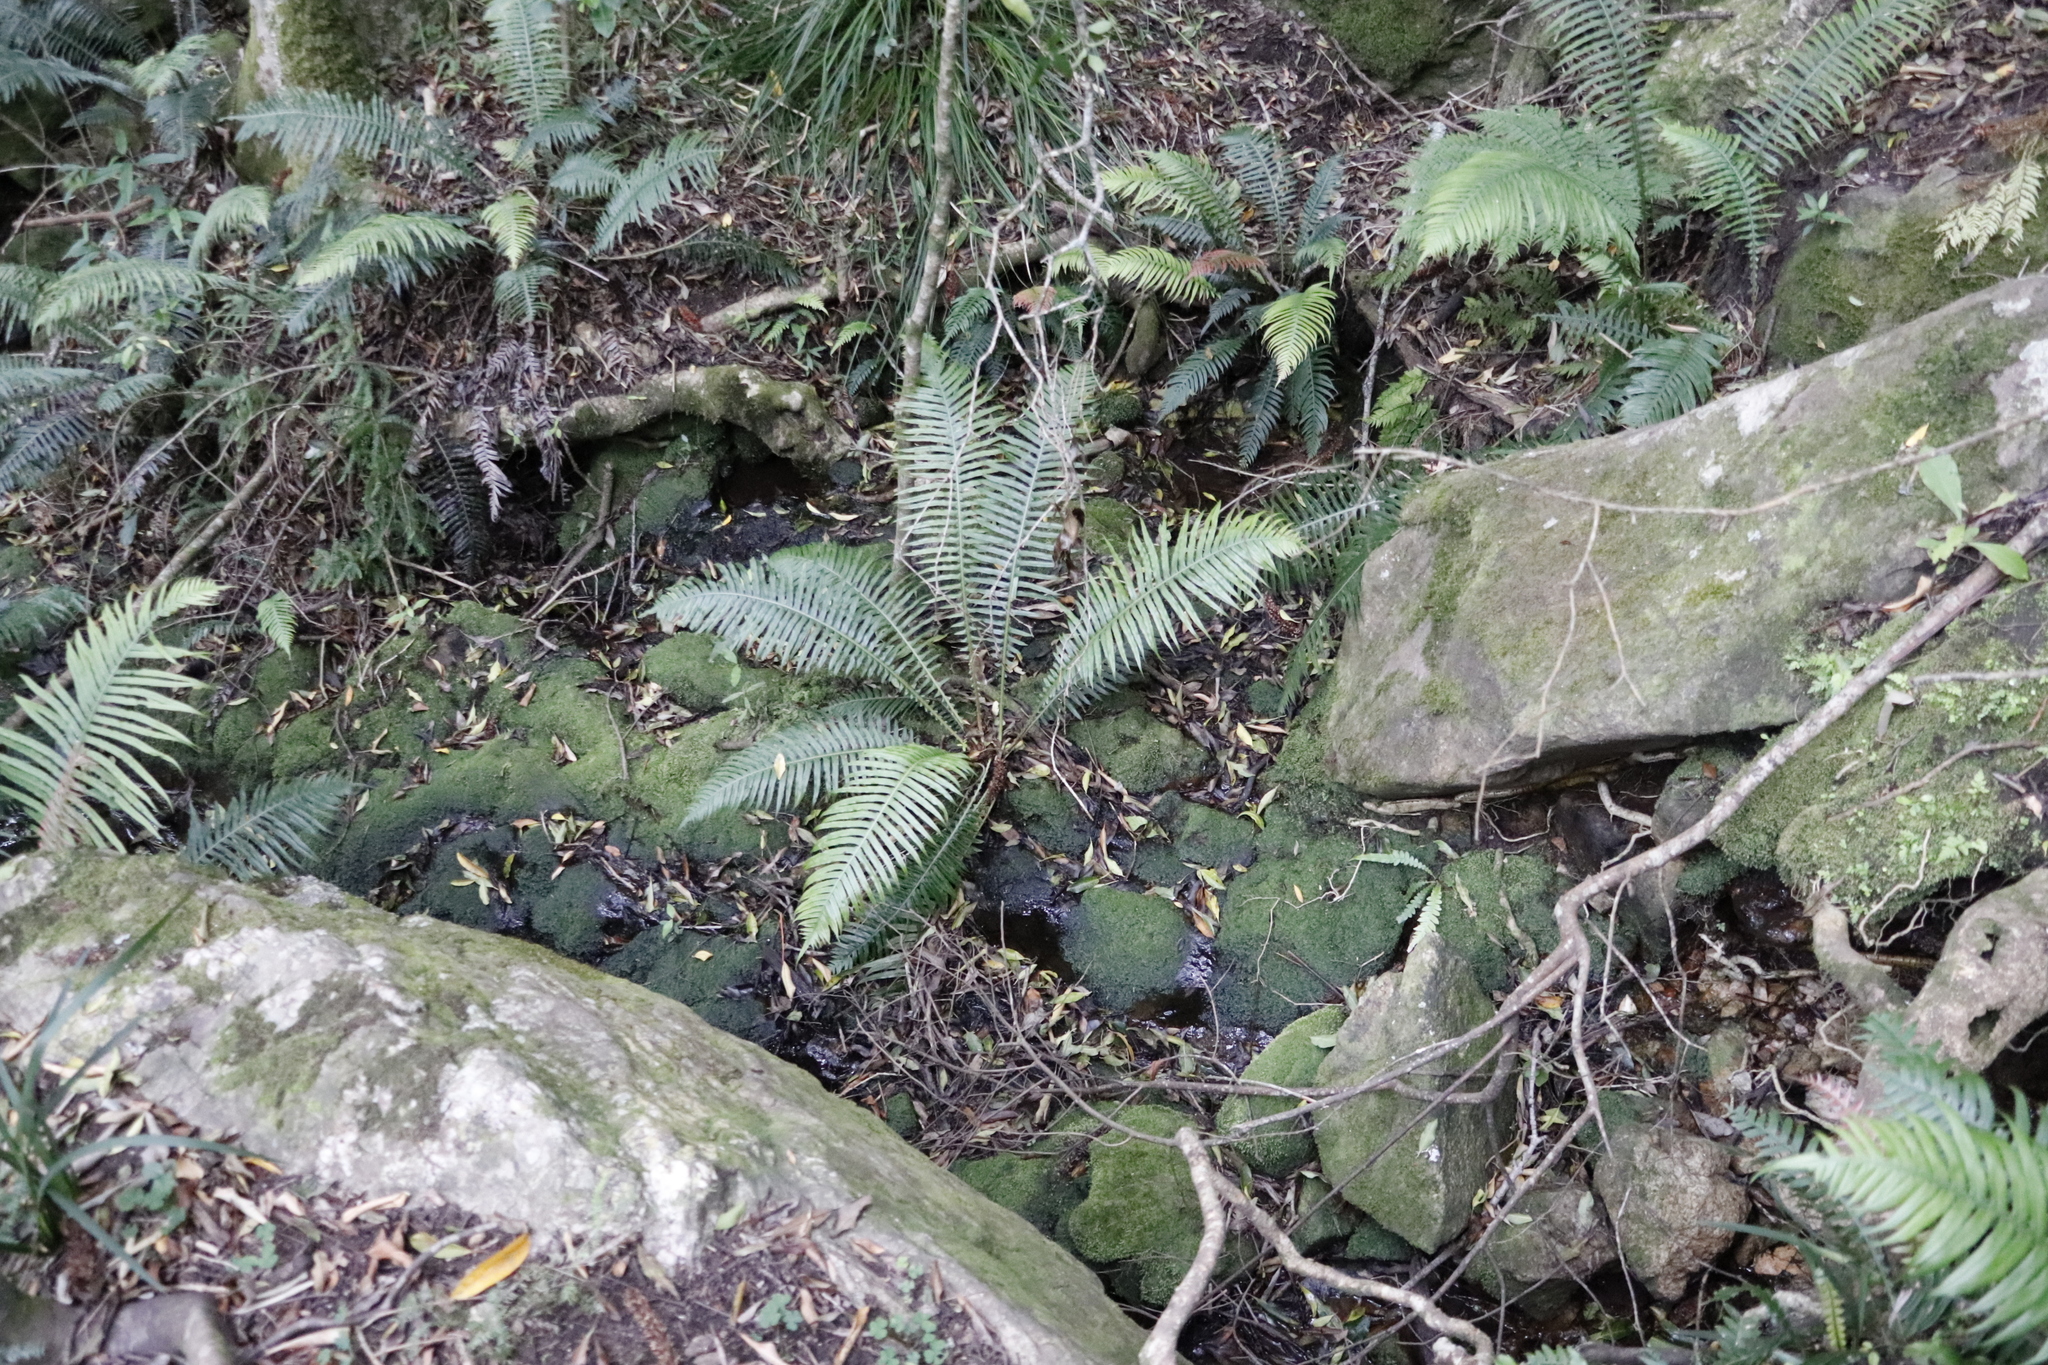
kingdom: Plantae
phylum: Tracheophyta
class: Polypodiopsida
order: Polypodiales
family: Blechnaceae
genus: Lomaridium
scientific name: Lomaridium attenuatum
